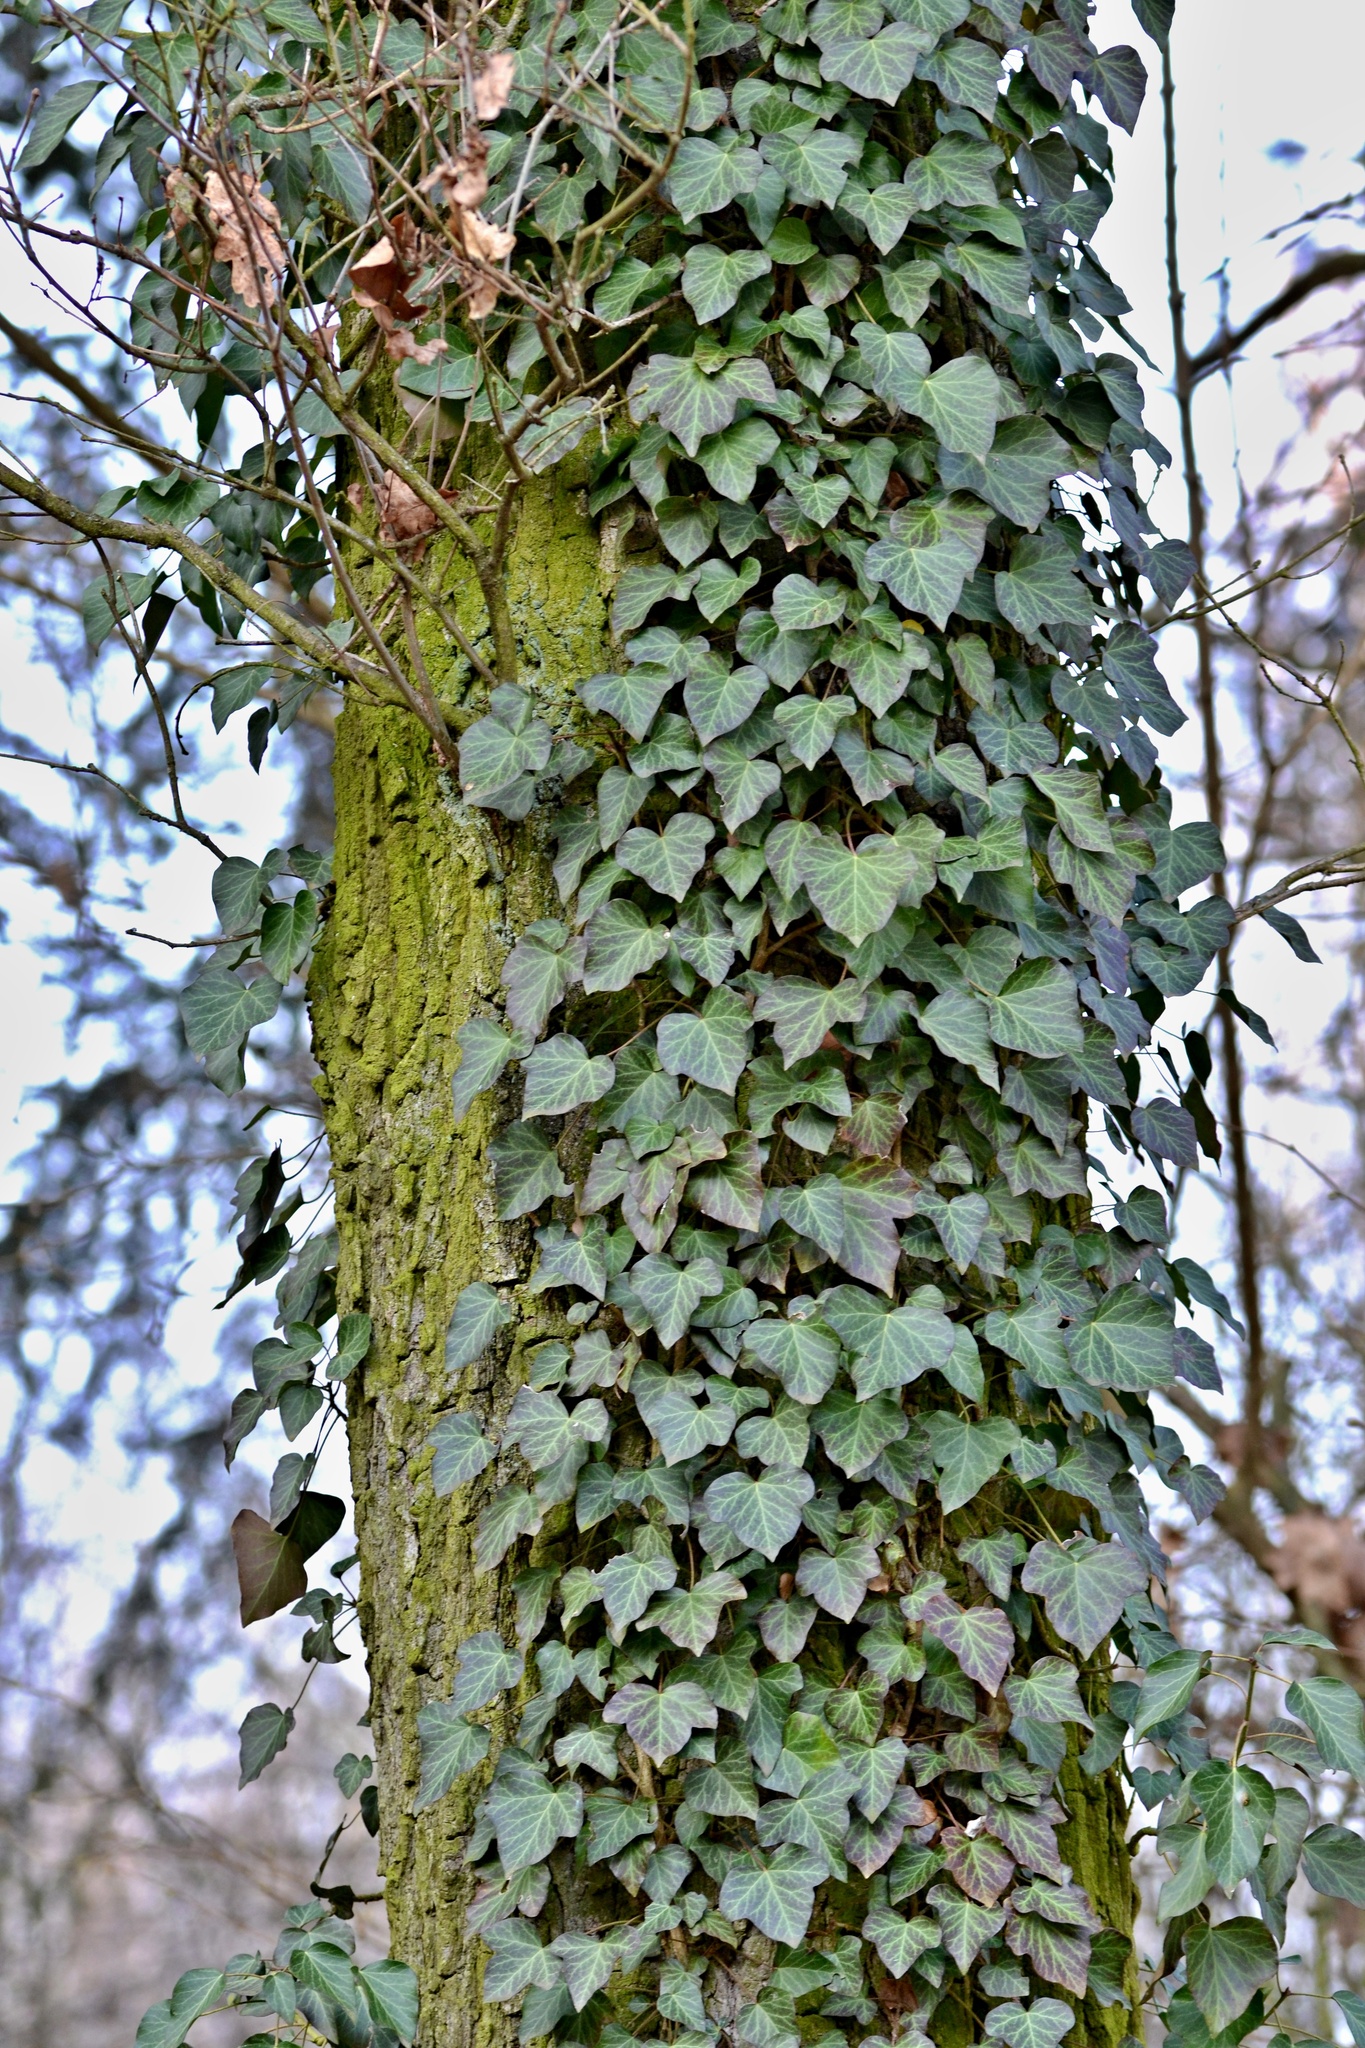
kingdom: Plantae
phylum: Tracheophyta
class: Magnoliopsida
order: Apiales
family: Araliaceae
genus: Hedera
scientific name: Hedera helix
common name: Ivy
